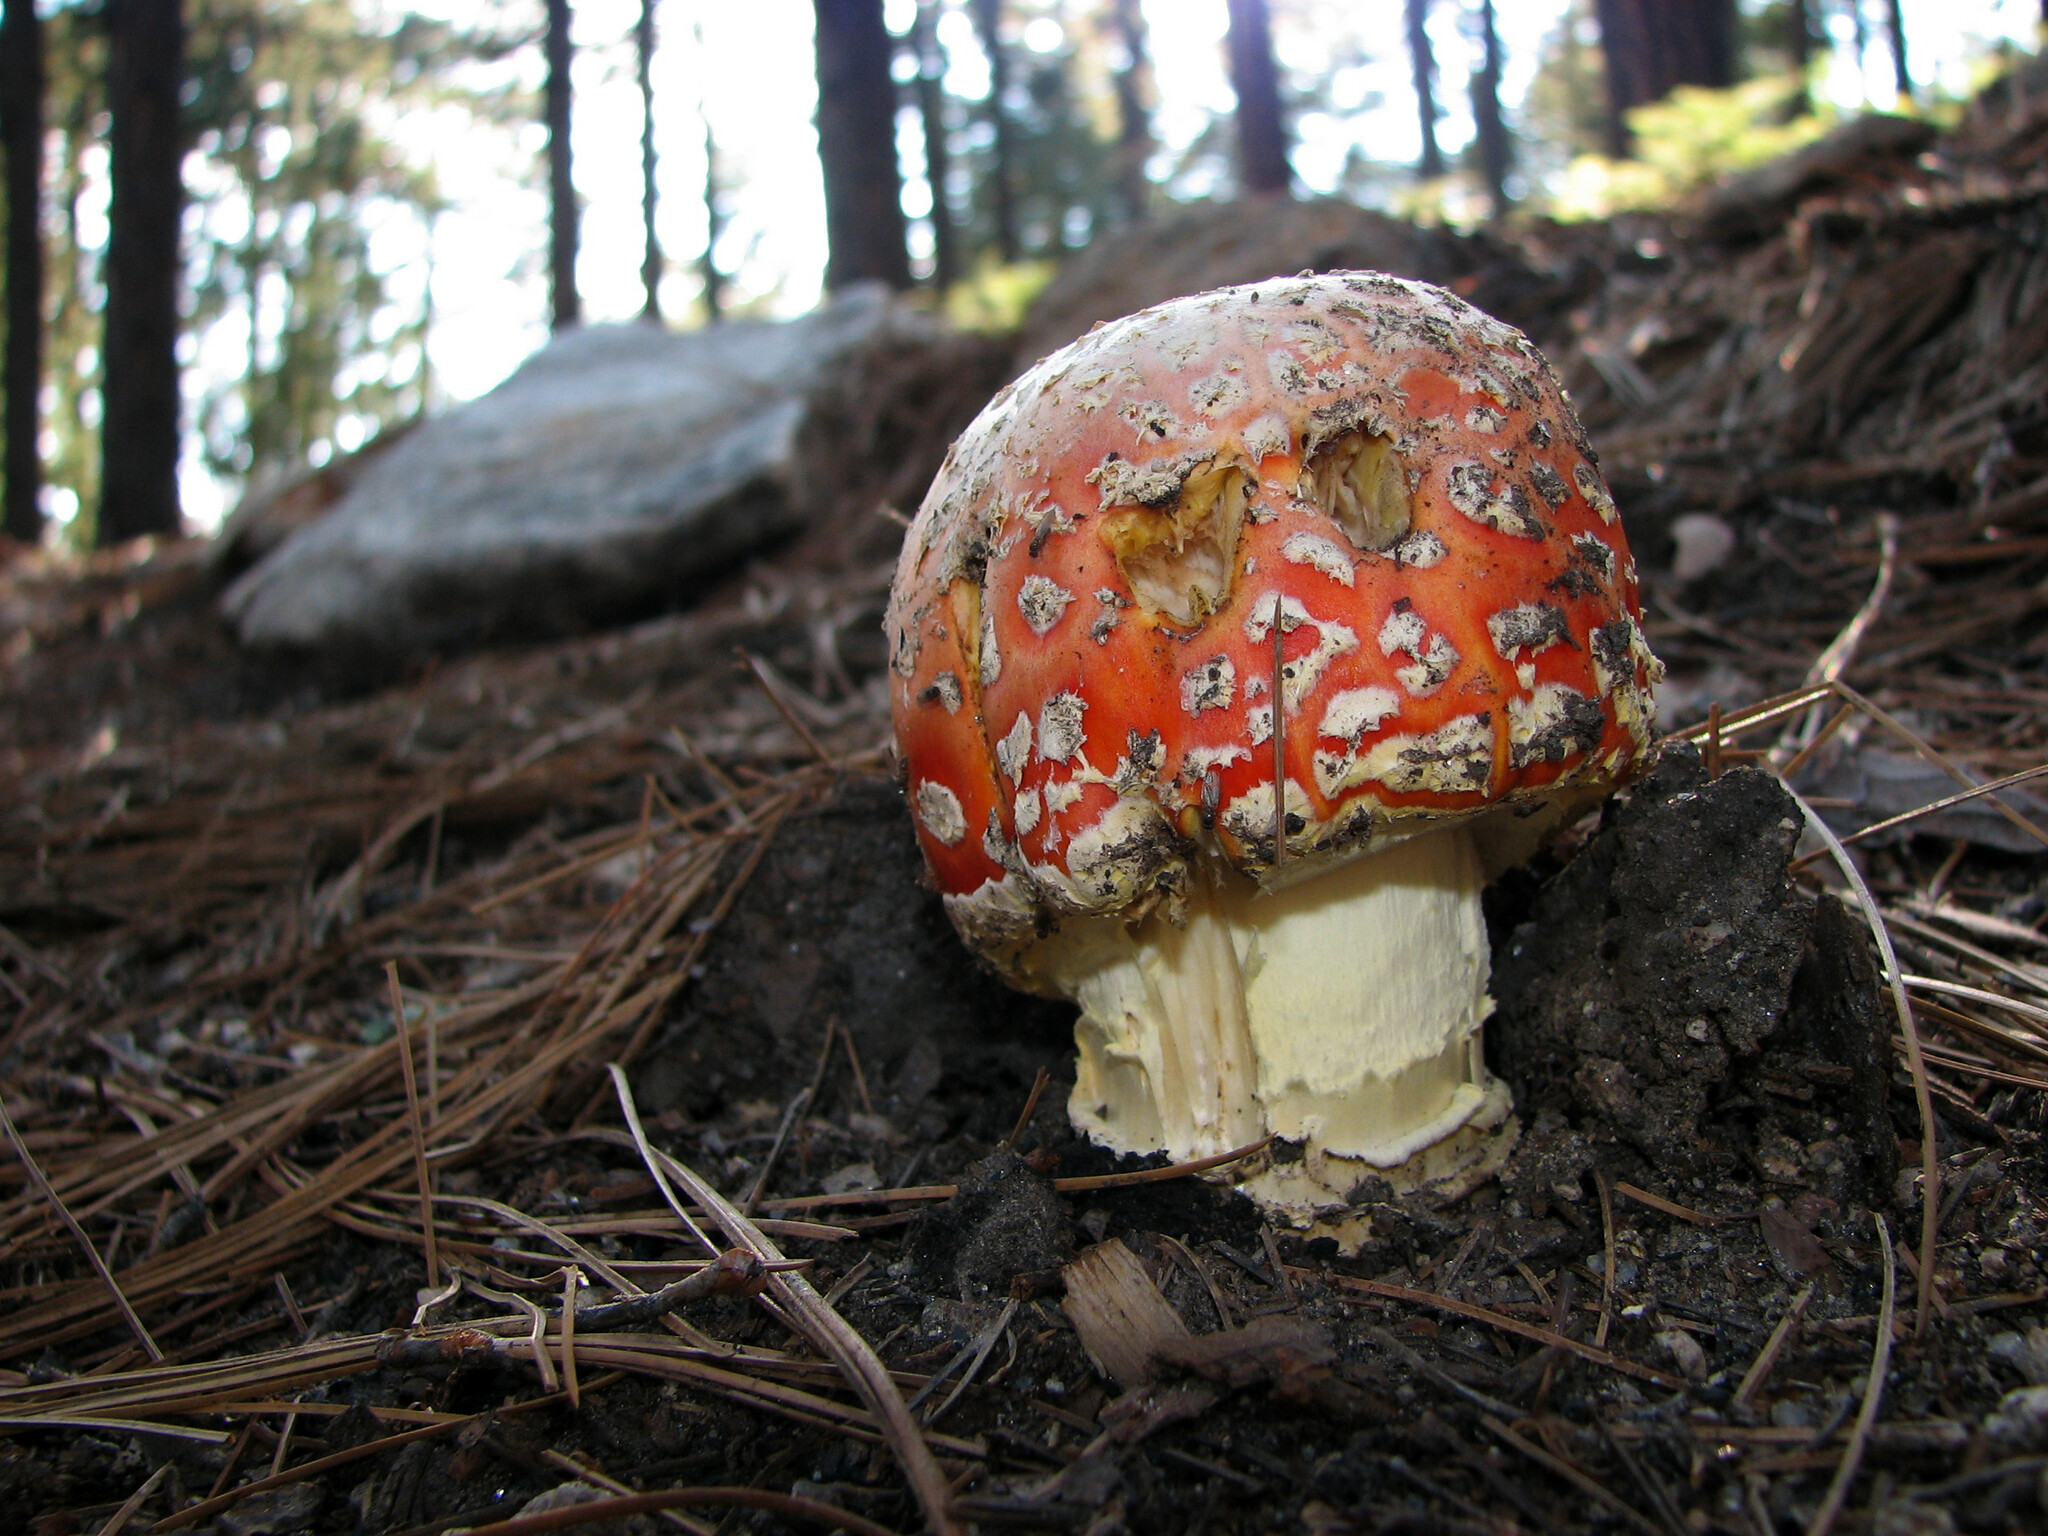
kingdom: Fungi
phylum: Basidiomycota
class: Agaricomycetes
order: Agaricales
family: Amanitaceae
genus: Amanita
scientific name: Amanita muscaria
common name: Fly agaric
